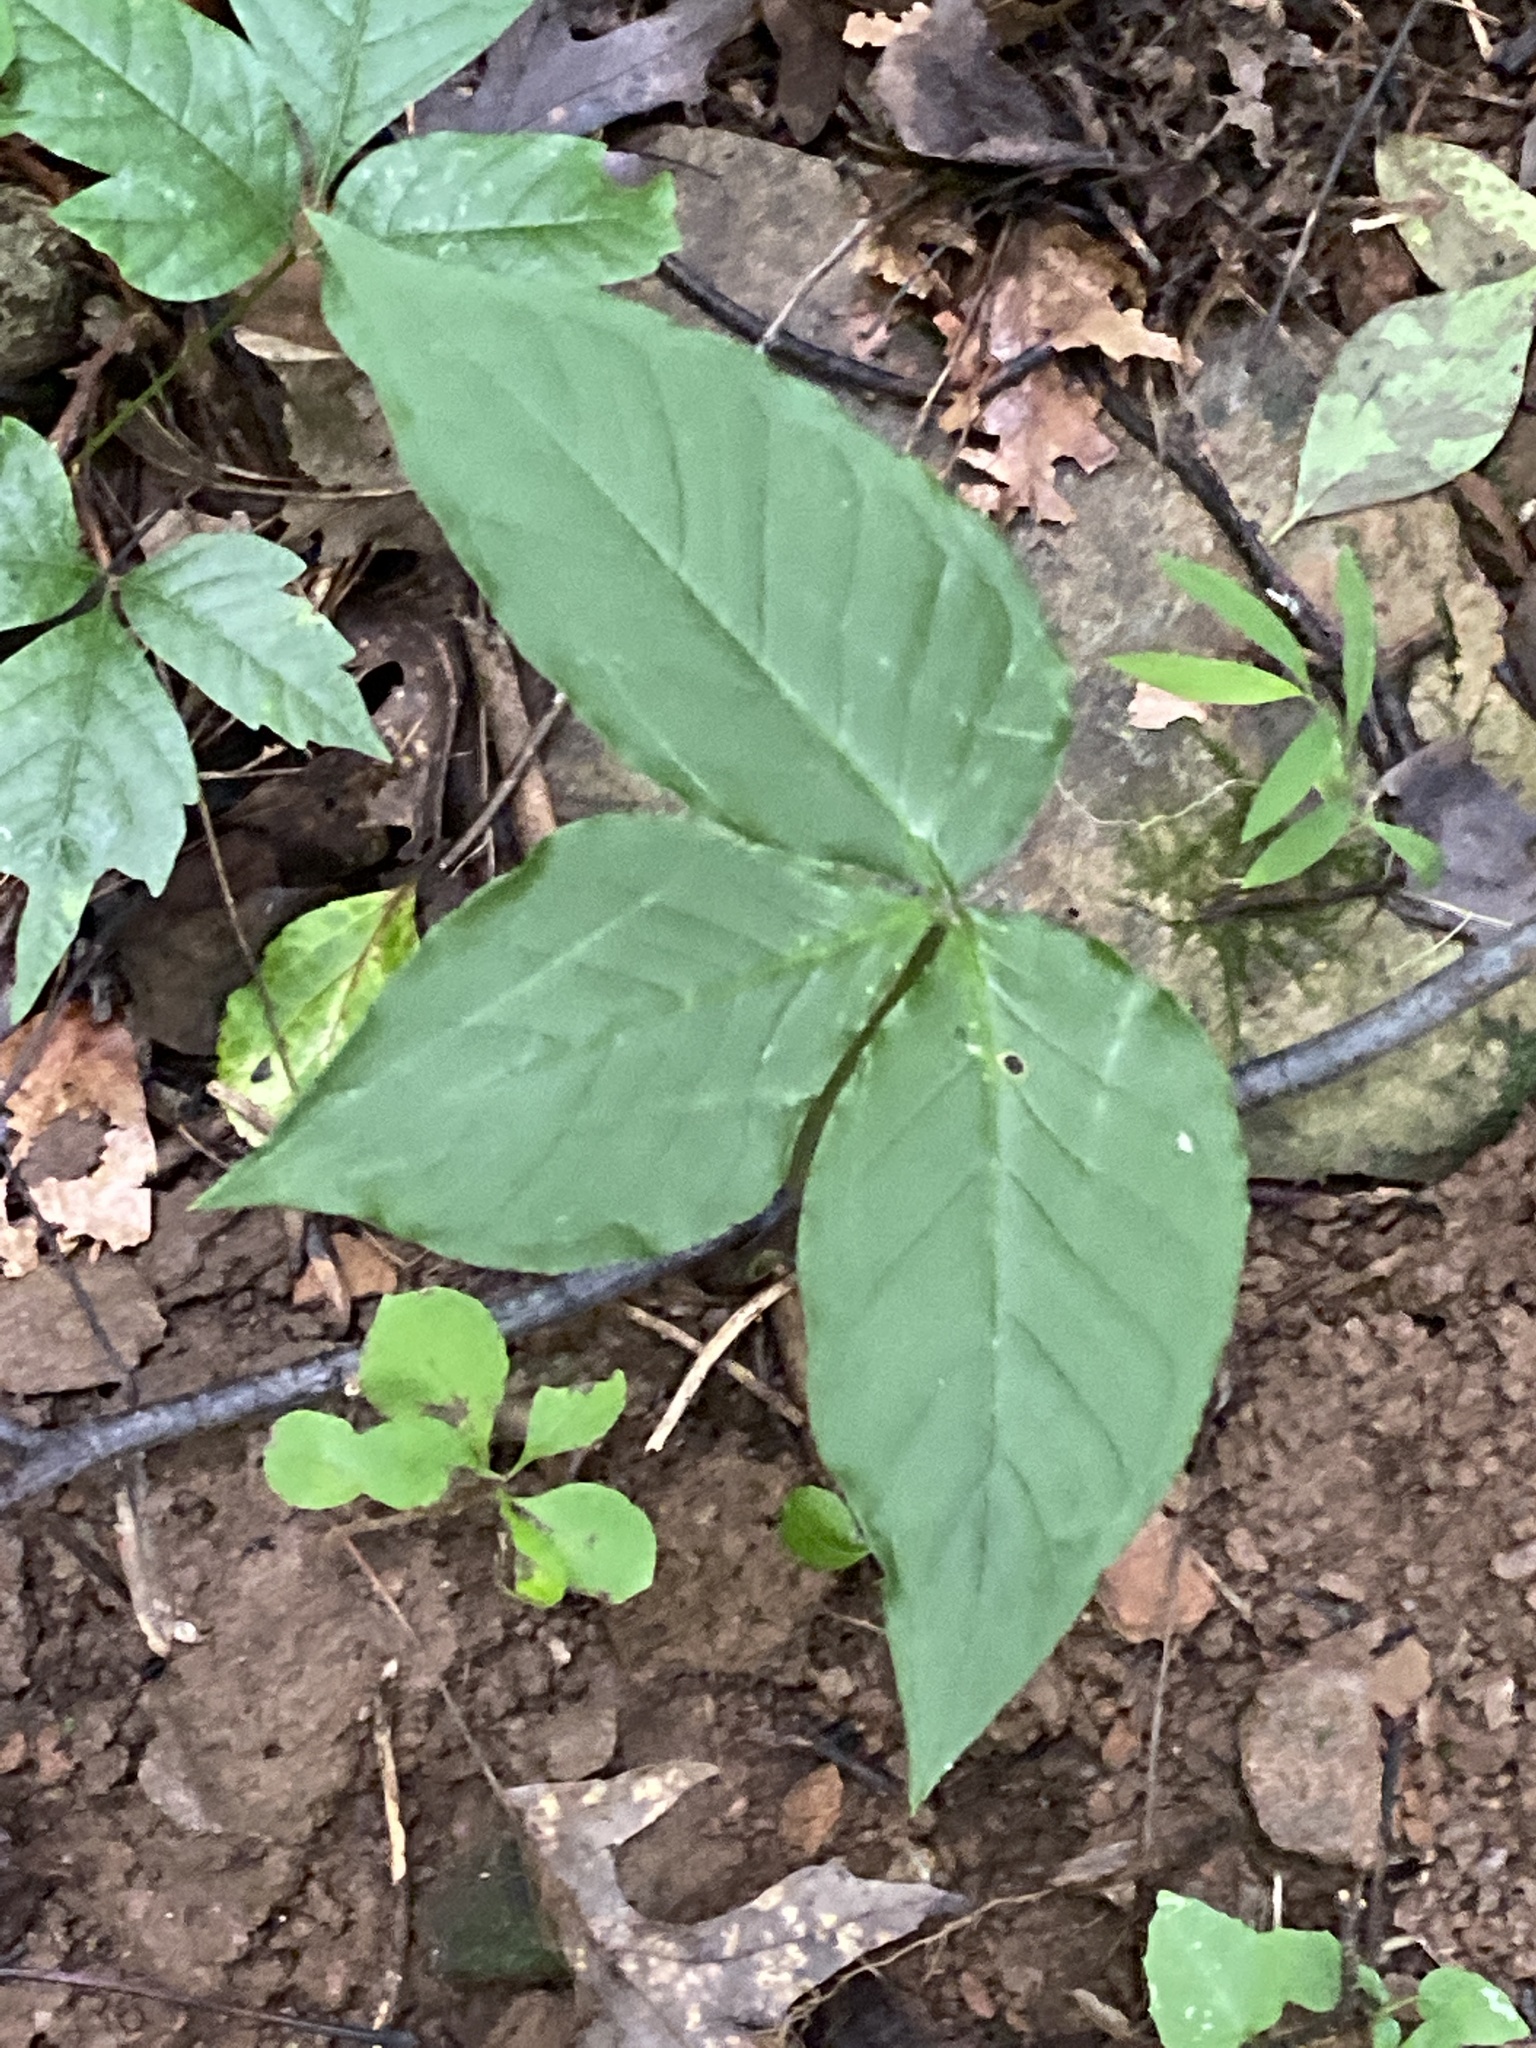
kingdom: Plantae
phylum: Tracheophyta
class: Liliopsida
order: Alismatales
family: Araceae
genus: Arisaema
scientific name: Arisaema triphyllum
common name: Jack-in-the-pulpit
